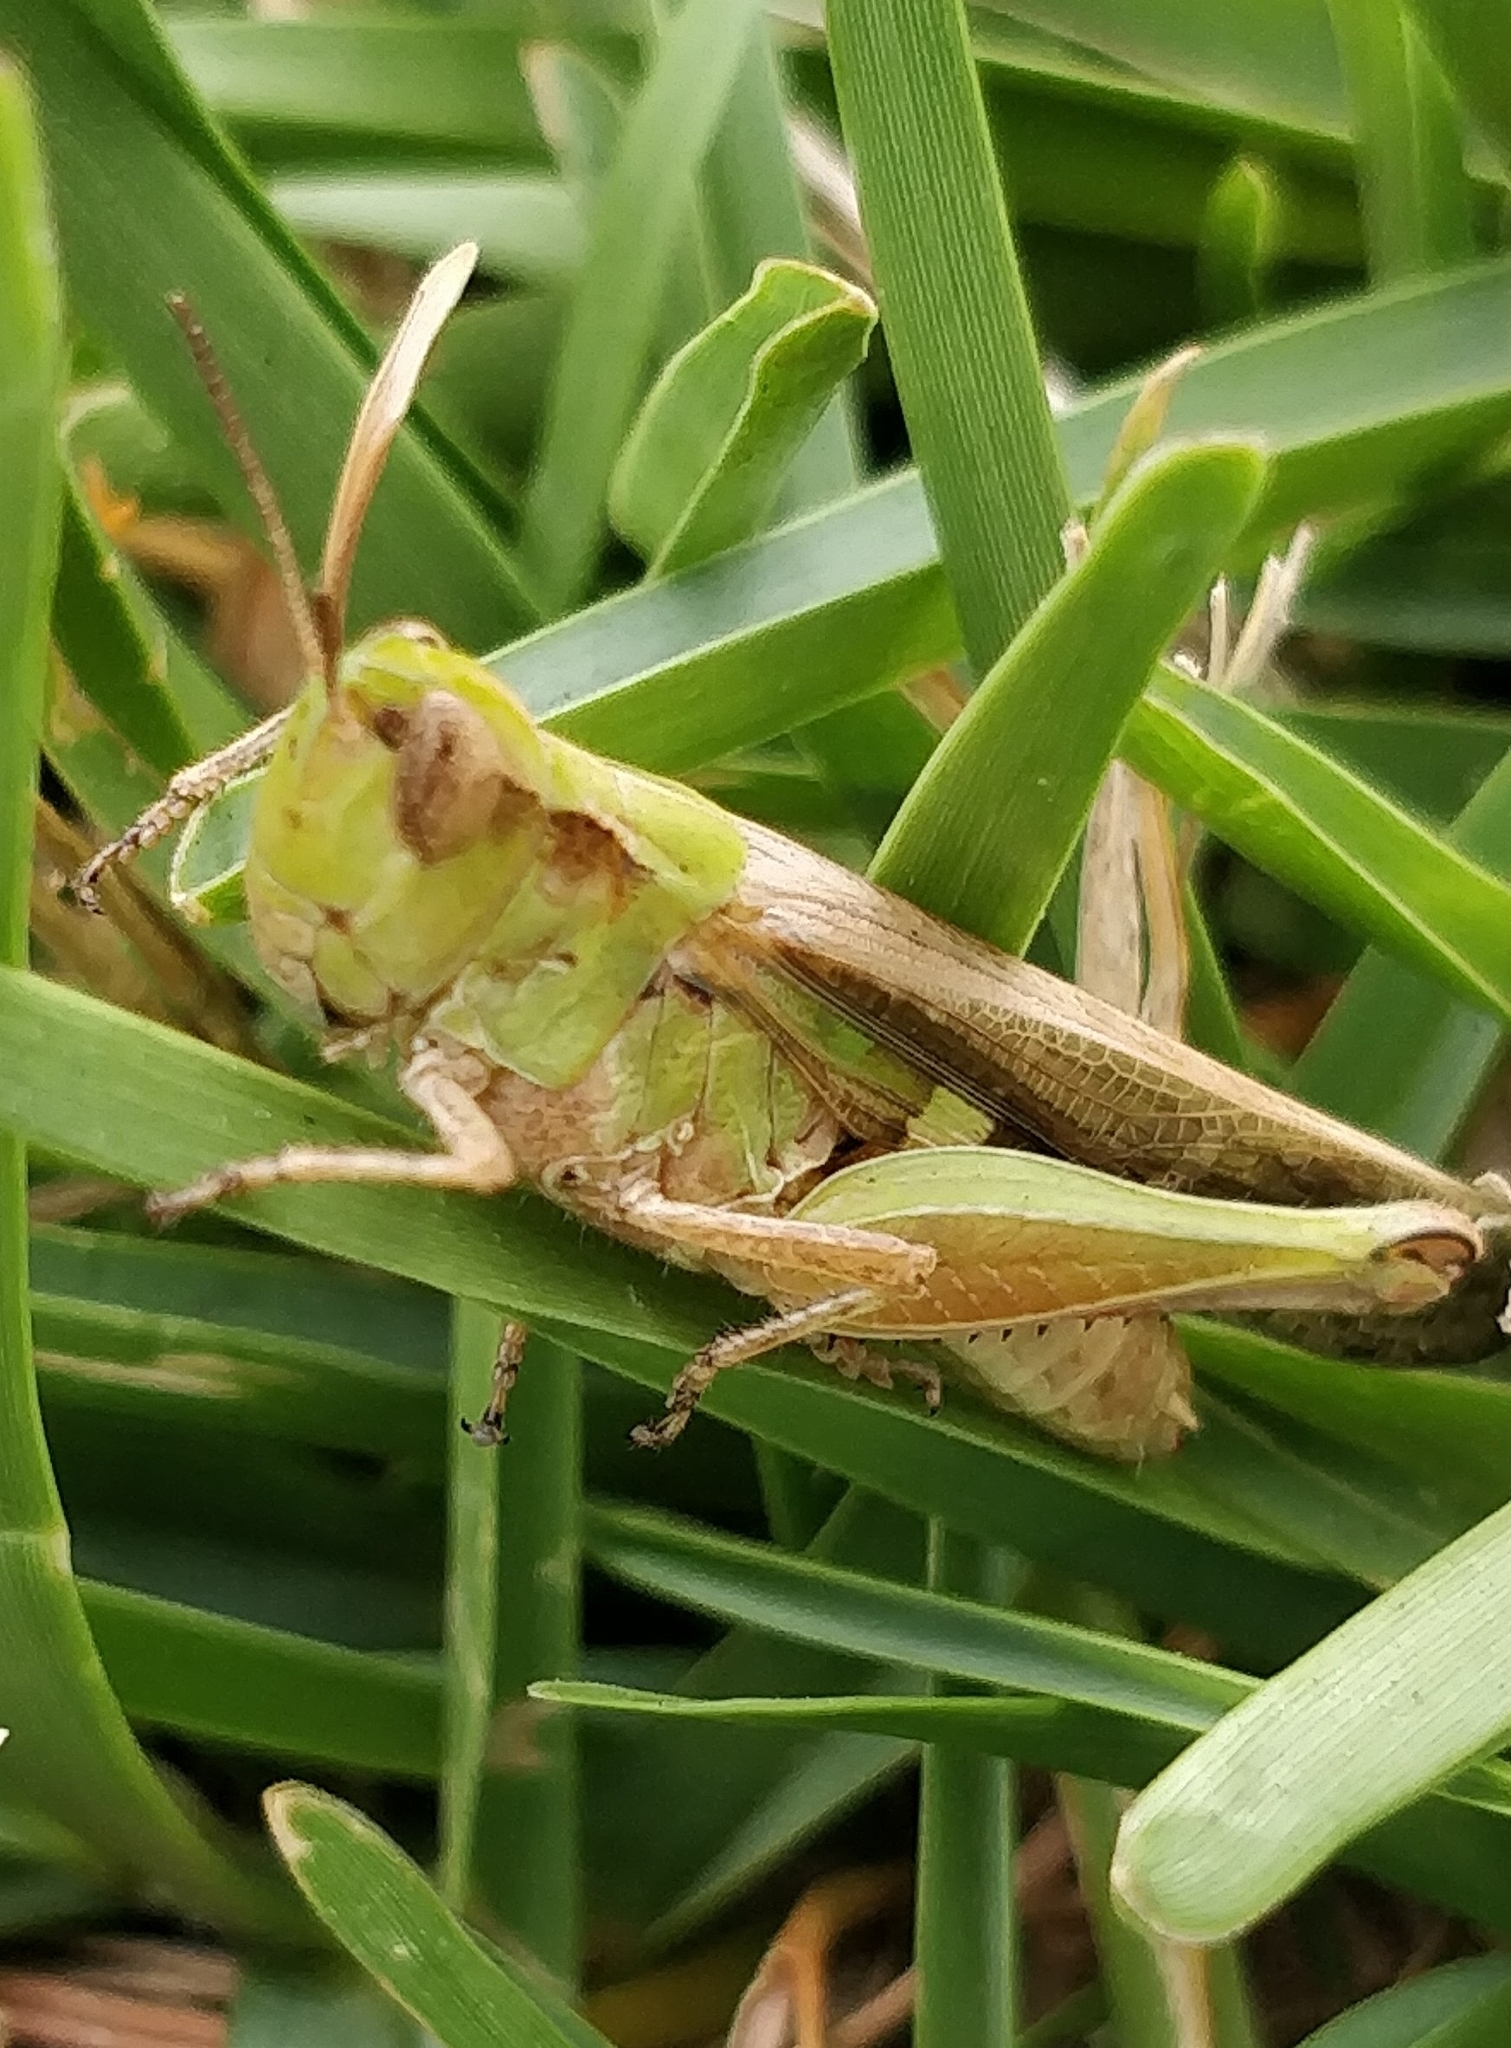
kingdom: Animalia
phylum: Arthropoda
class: Insecta
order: Orthoptera
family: Acrididae
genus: Aiolopus
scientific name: Aiolopus thalassinus
